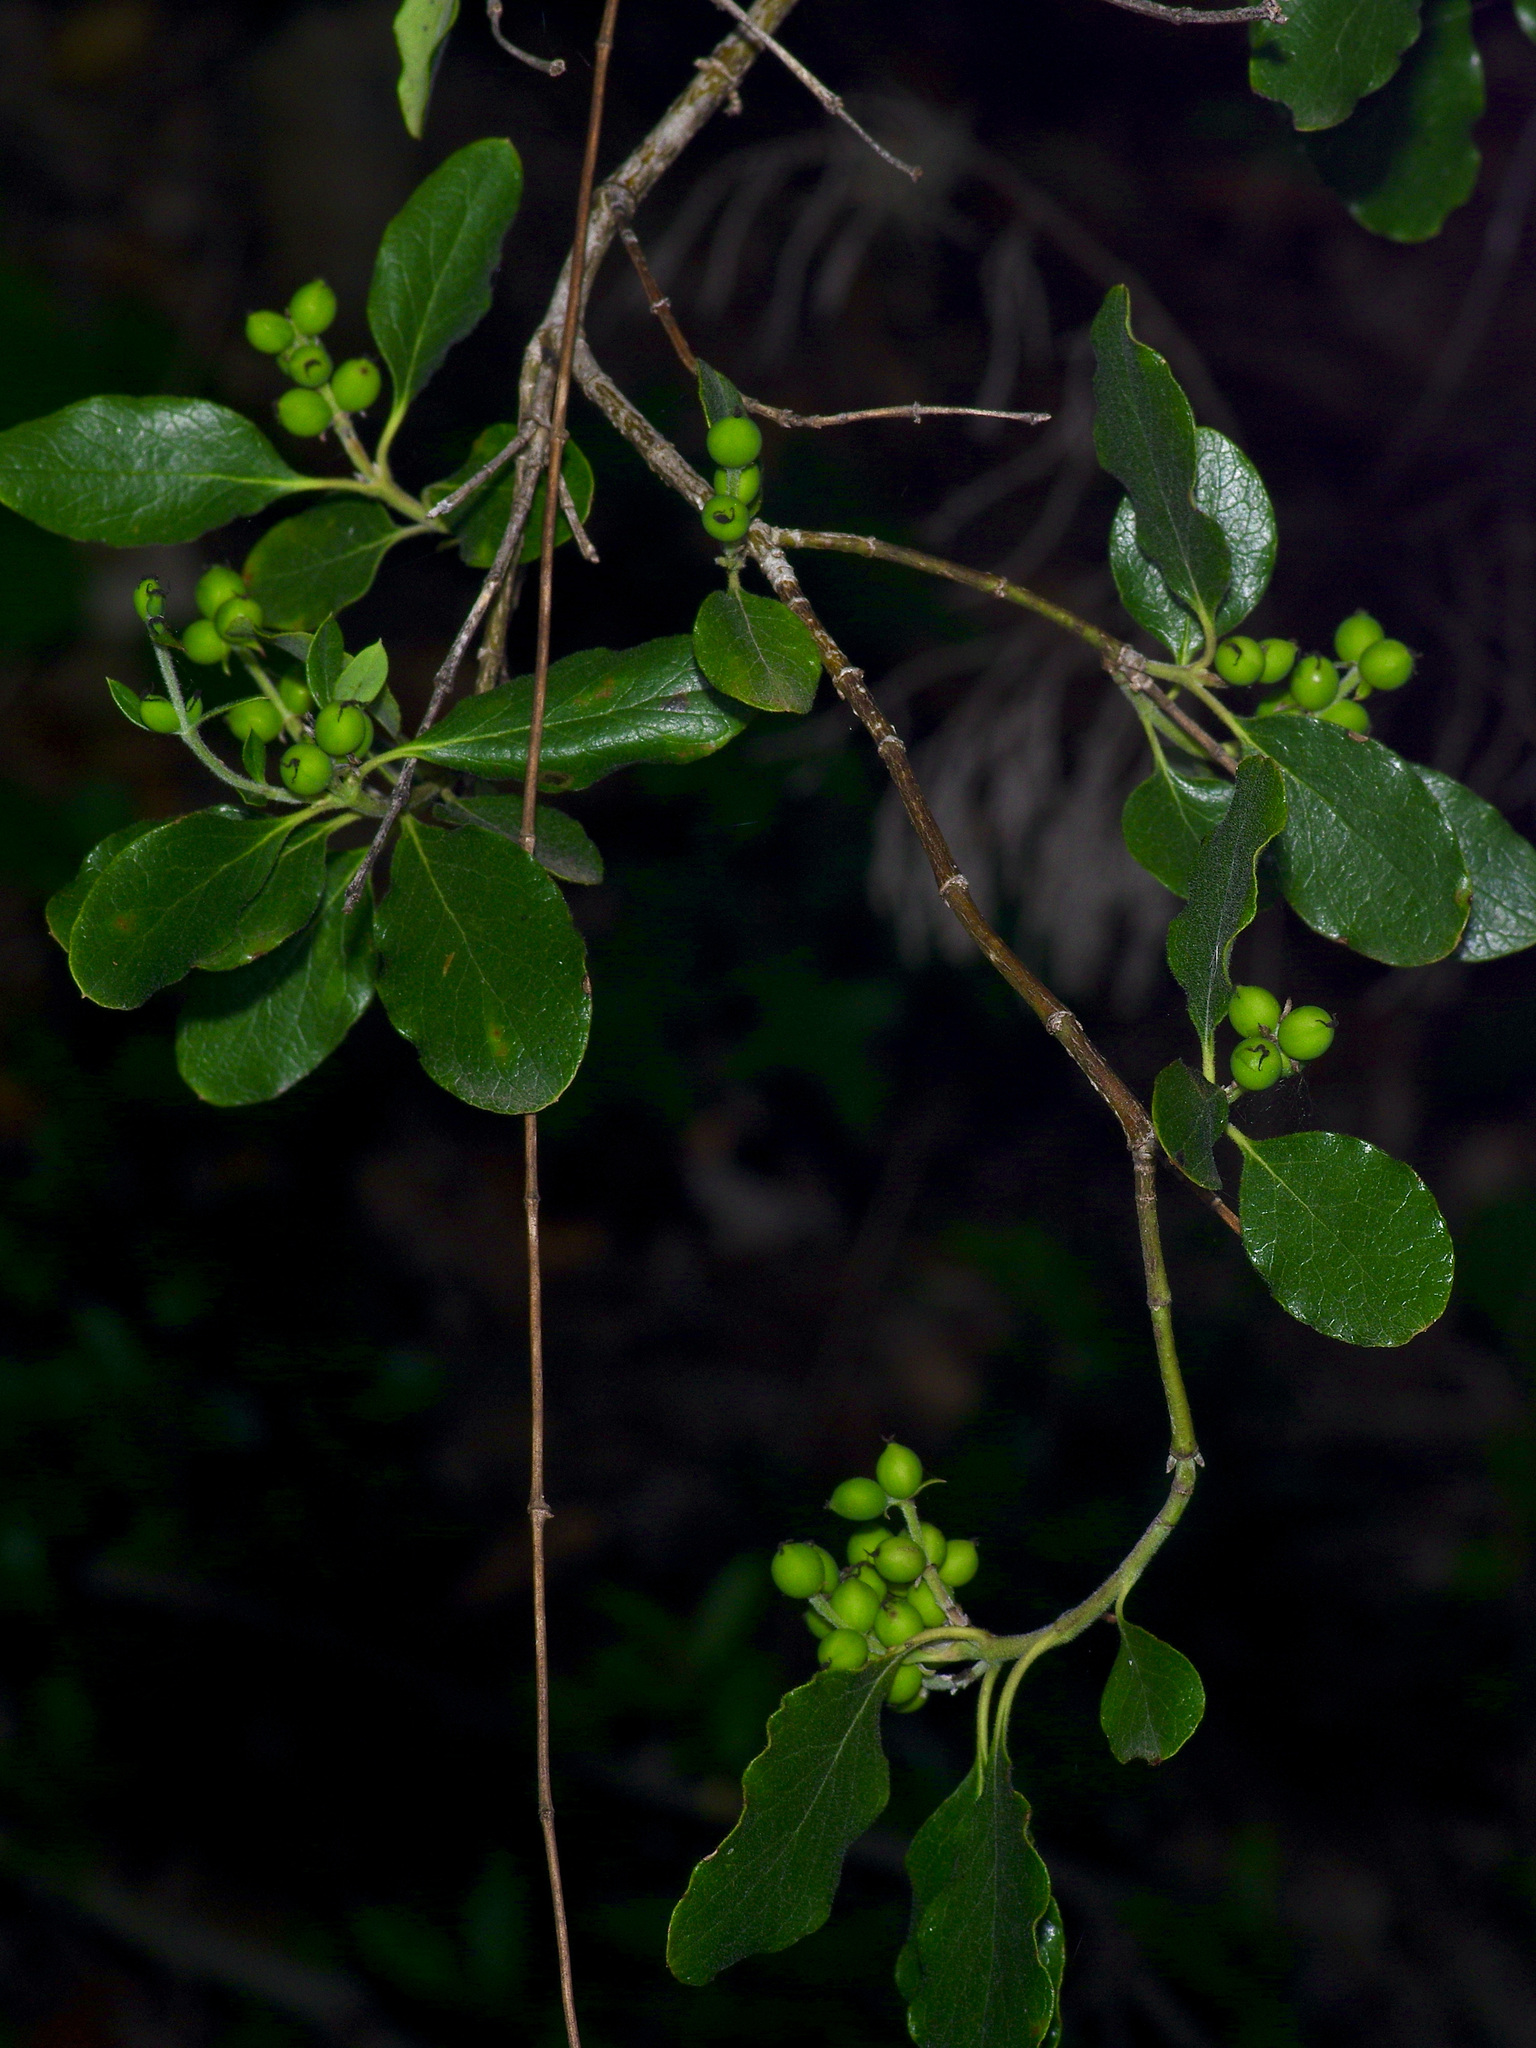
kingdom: Plantae
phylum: Tracheophyta
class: Magnoliopsida
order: Garryales
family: Garryaceae
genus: Garrya
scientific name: Garrya lindheimeri
